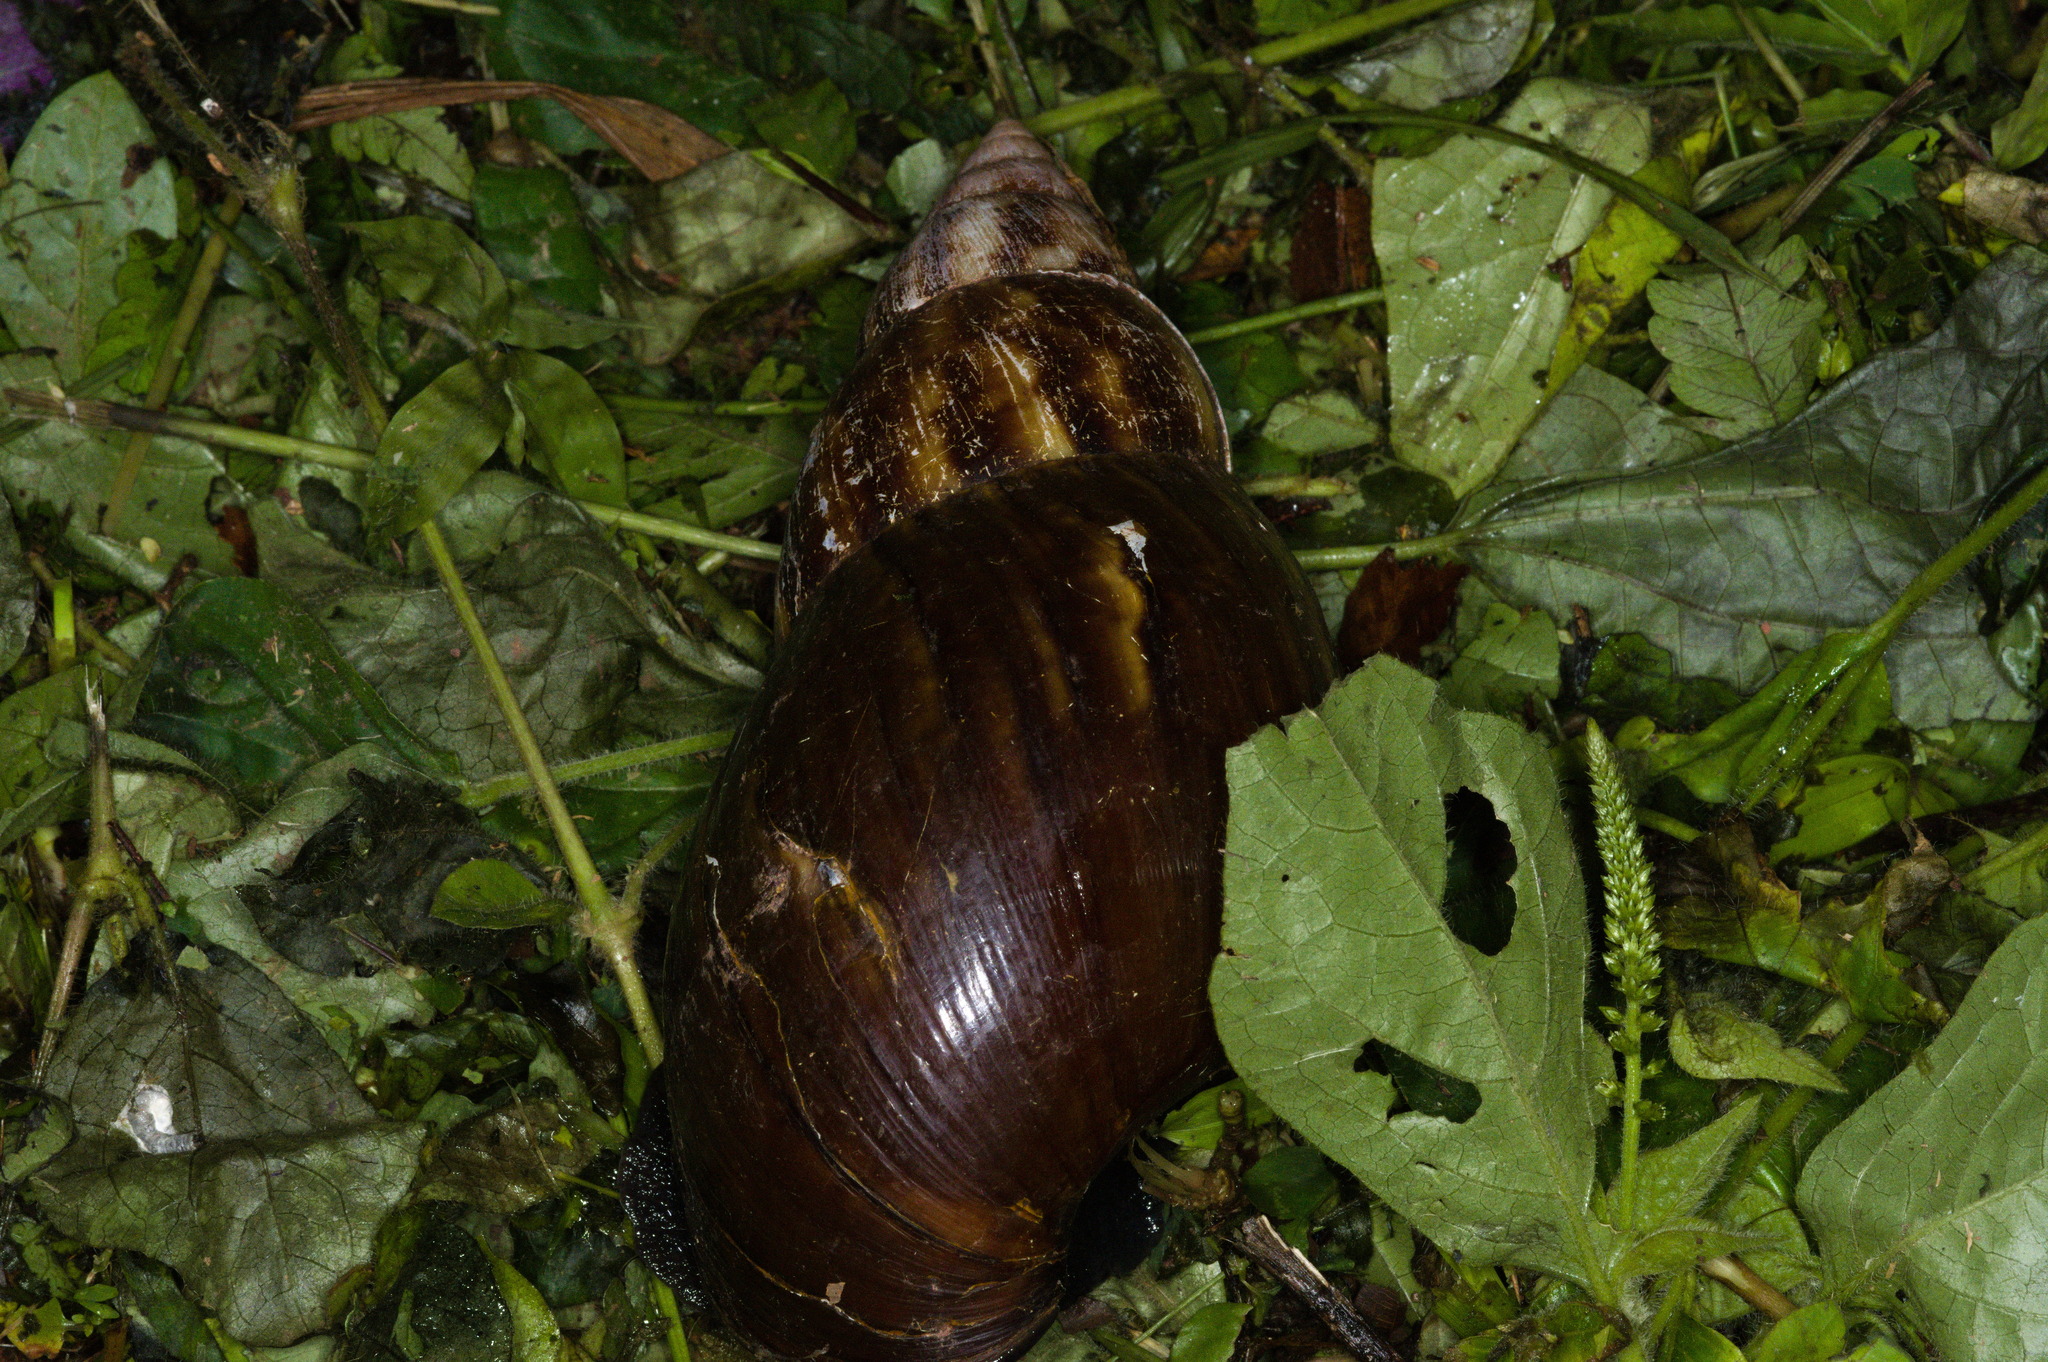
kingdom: Animalia
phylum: Mollusca
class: Gastropoda
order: Stylommatophora
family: Achatinidae
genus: Lissachatina
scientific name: Lissachatina fulica
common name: Giant african snail
